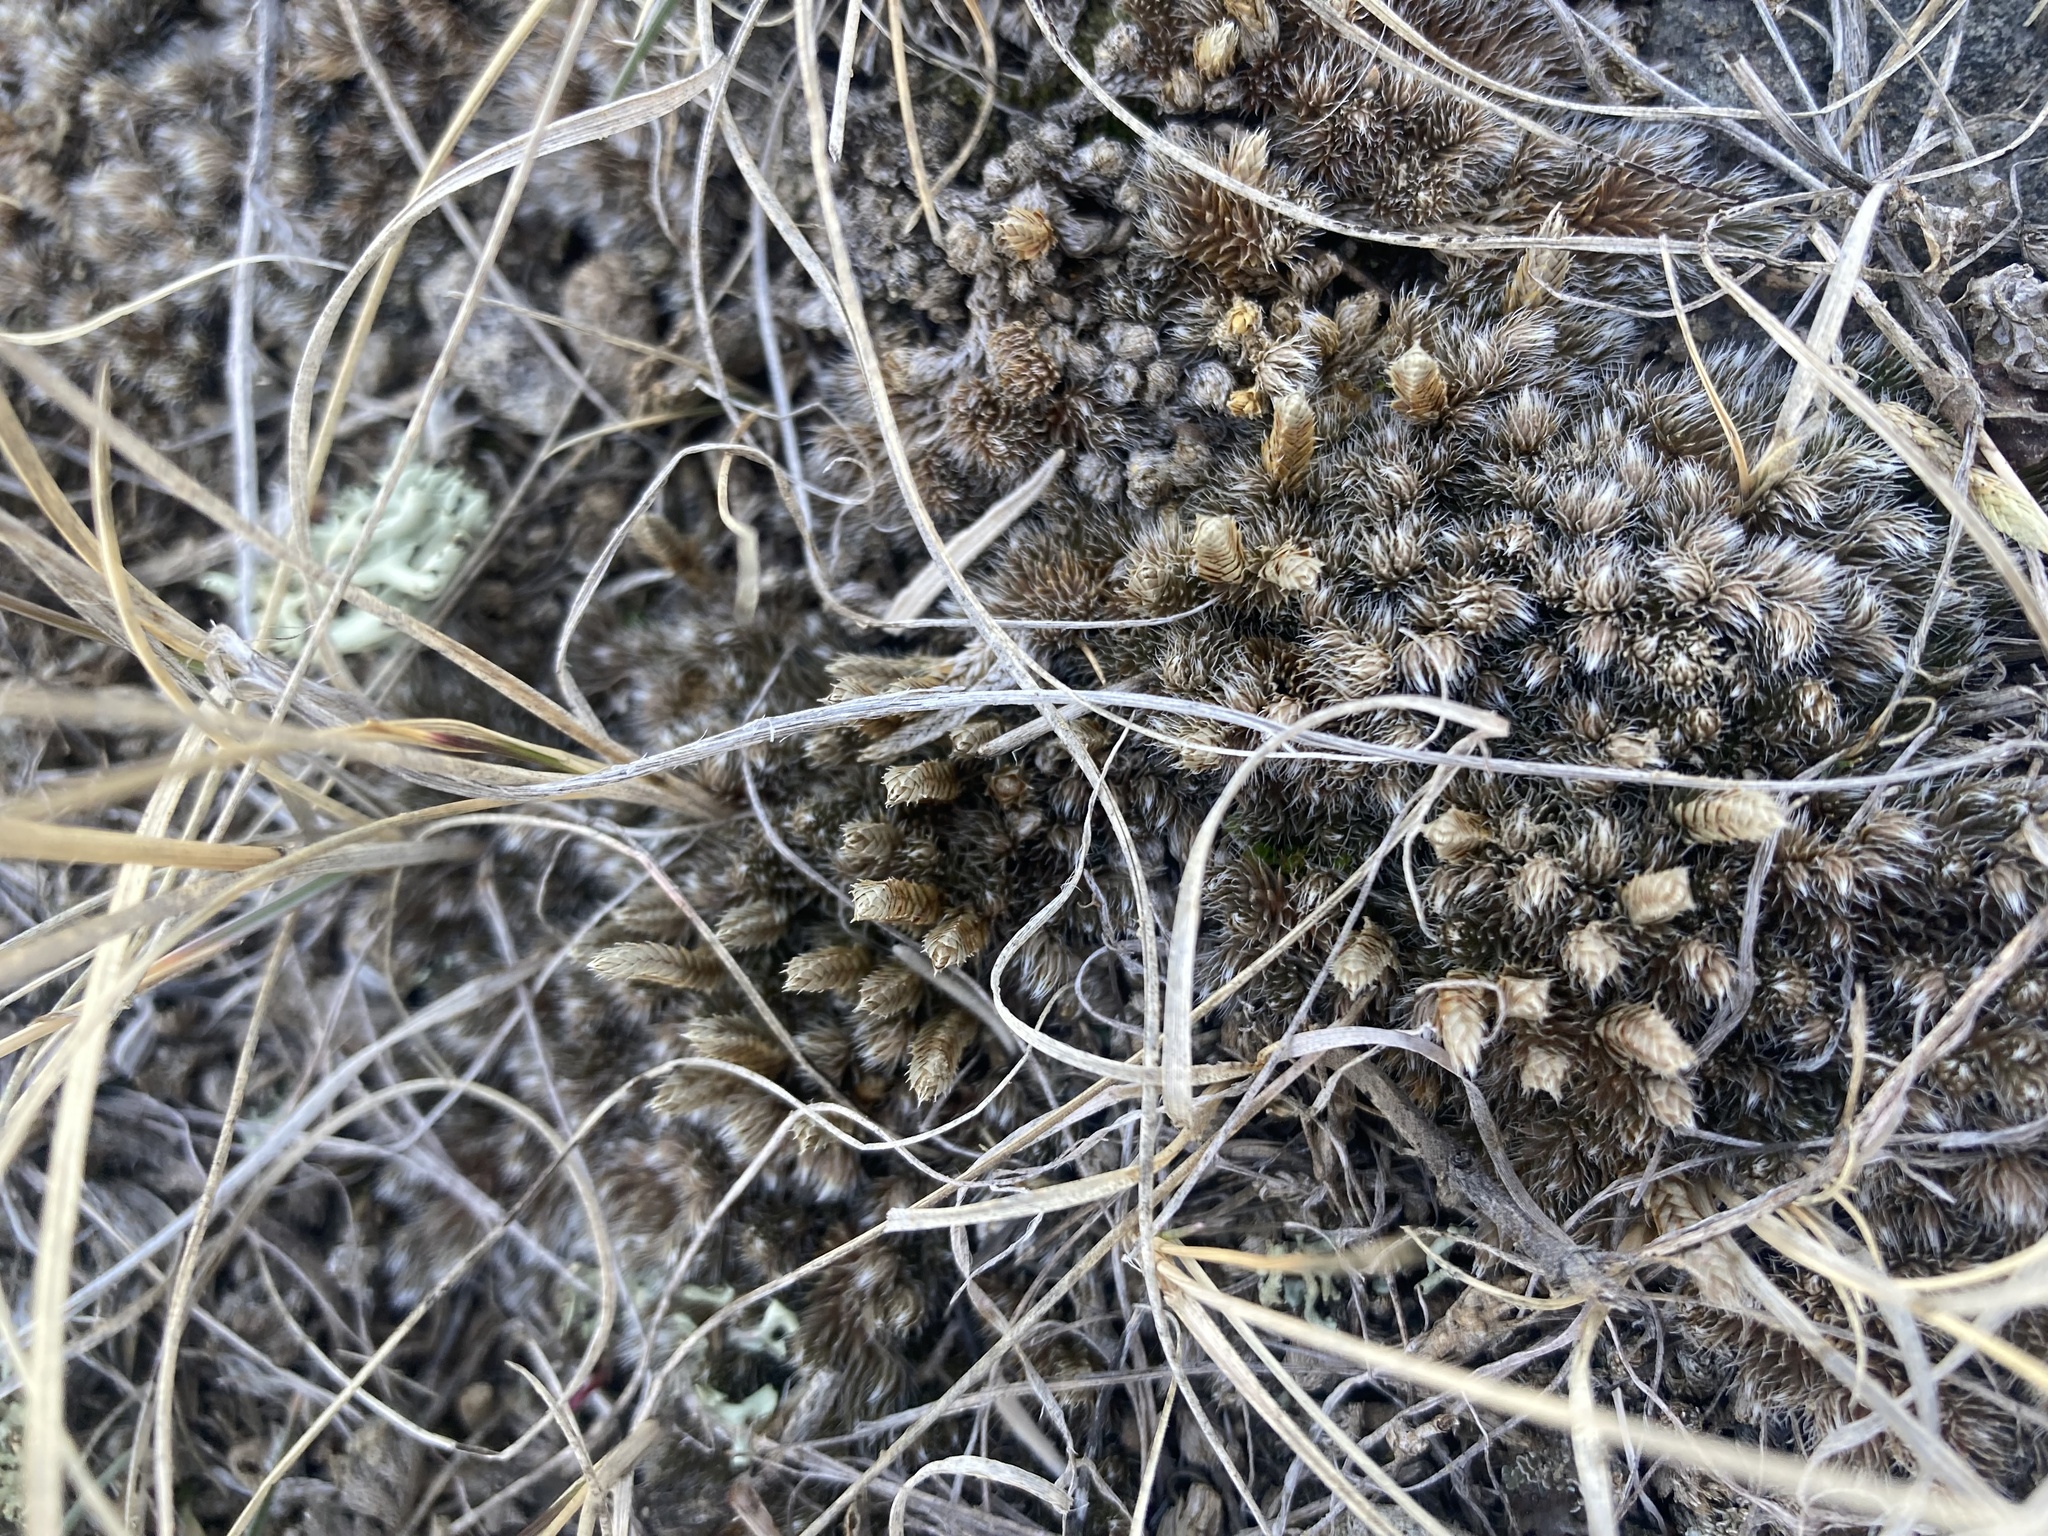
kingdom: Plantae
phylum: Tracheophyta
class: Lycopodiopsida
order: Selaginellales
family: Selaginellaceae
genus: Selaginella
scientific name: Selaginella densa
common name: Mountain spike-moss
